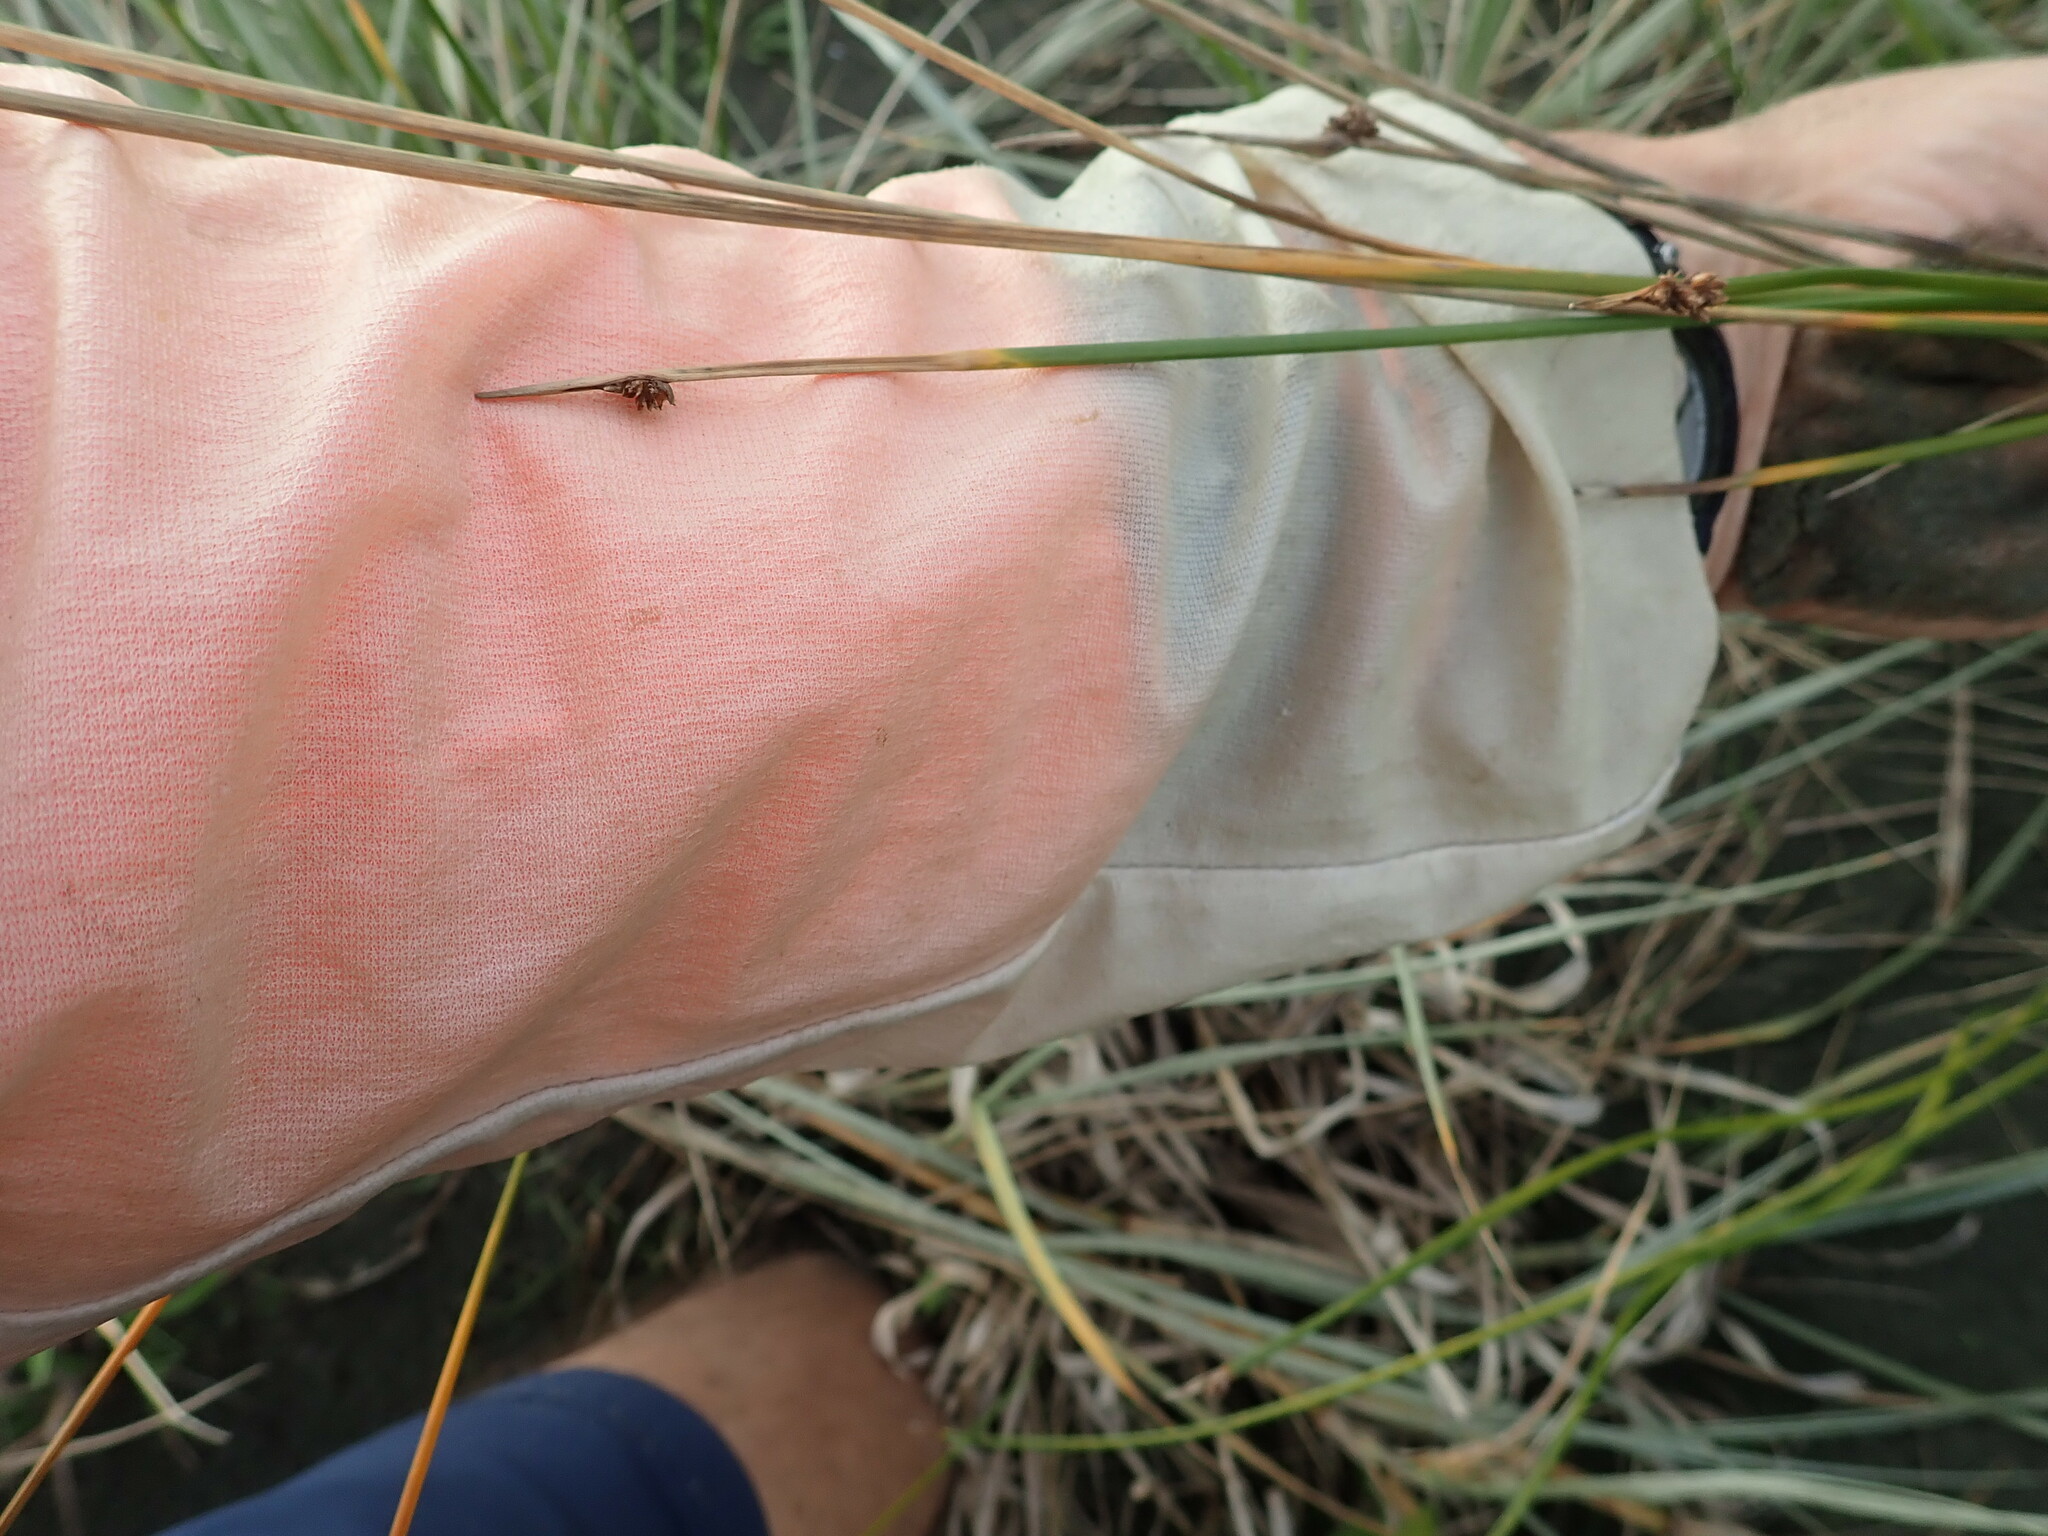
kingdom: Plantae
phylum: Tracheophyta
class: Liliopsida
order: Poales
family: Cyperaceae
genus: Ficinia
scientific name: Ficinia nodosa
